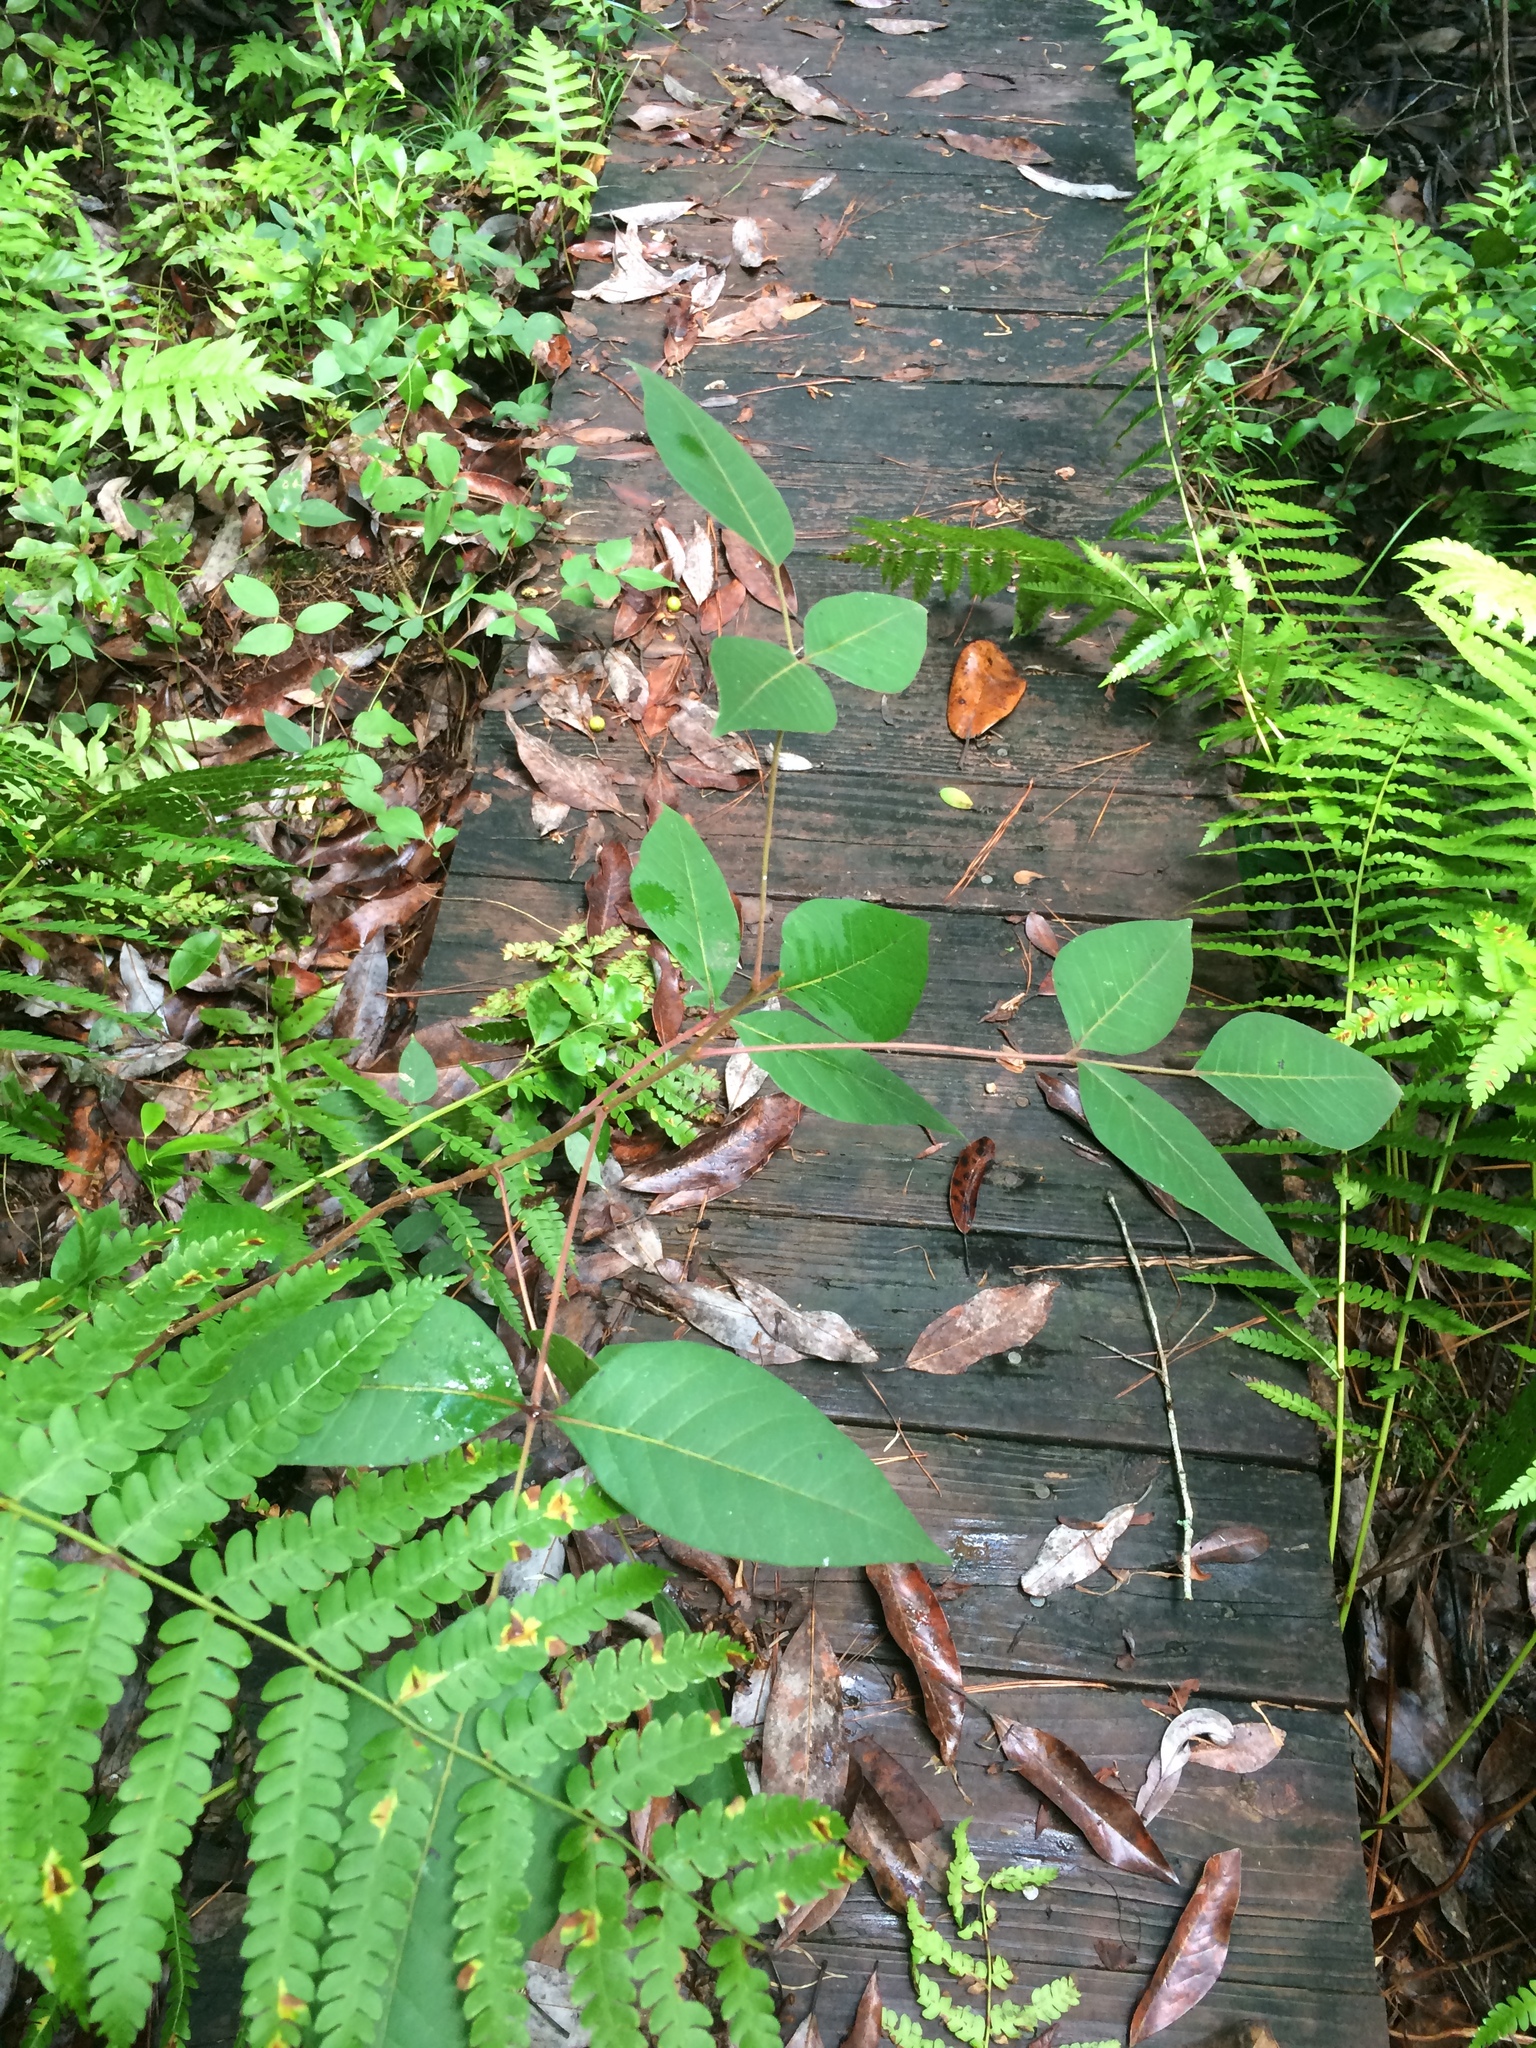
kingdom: Plantae
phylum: Tracheophyta
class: Magnoliopsida
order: Sapindales
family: Anacardiaceae
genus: Toxicodendron
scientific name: Toxicodendron radicans
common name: Poison ivy
